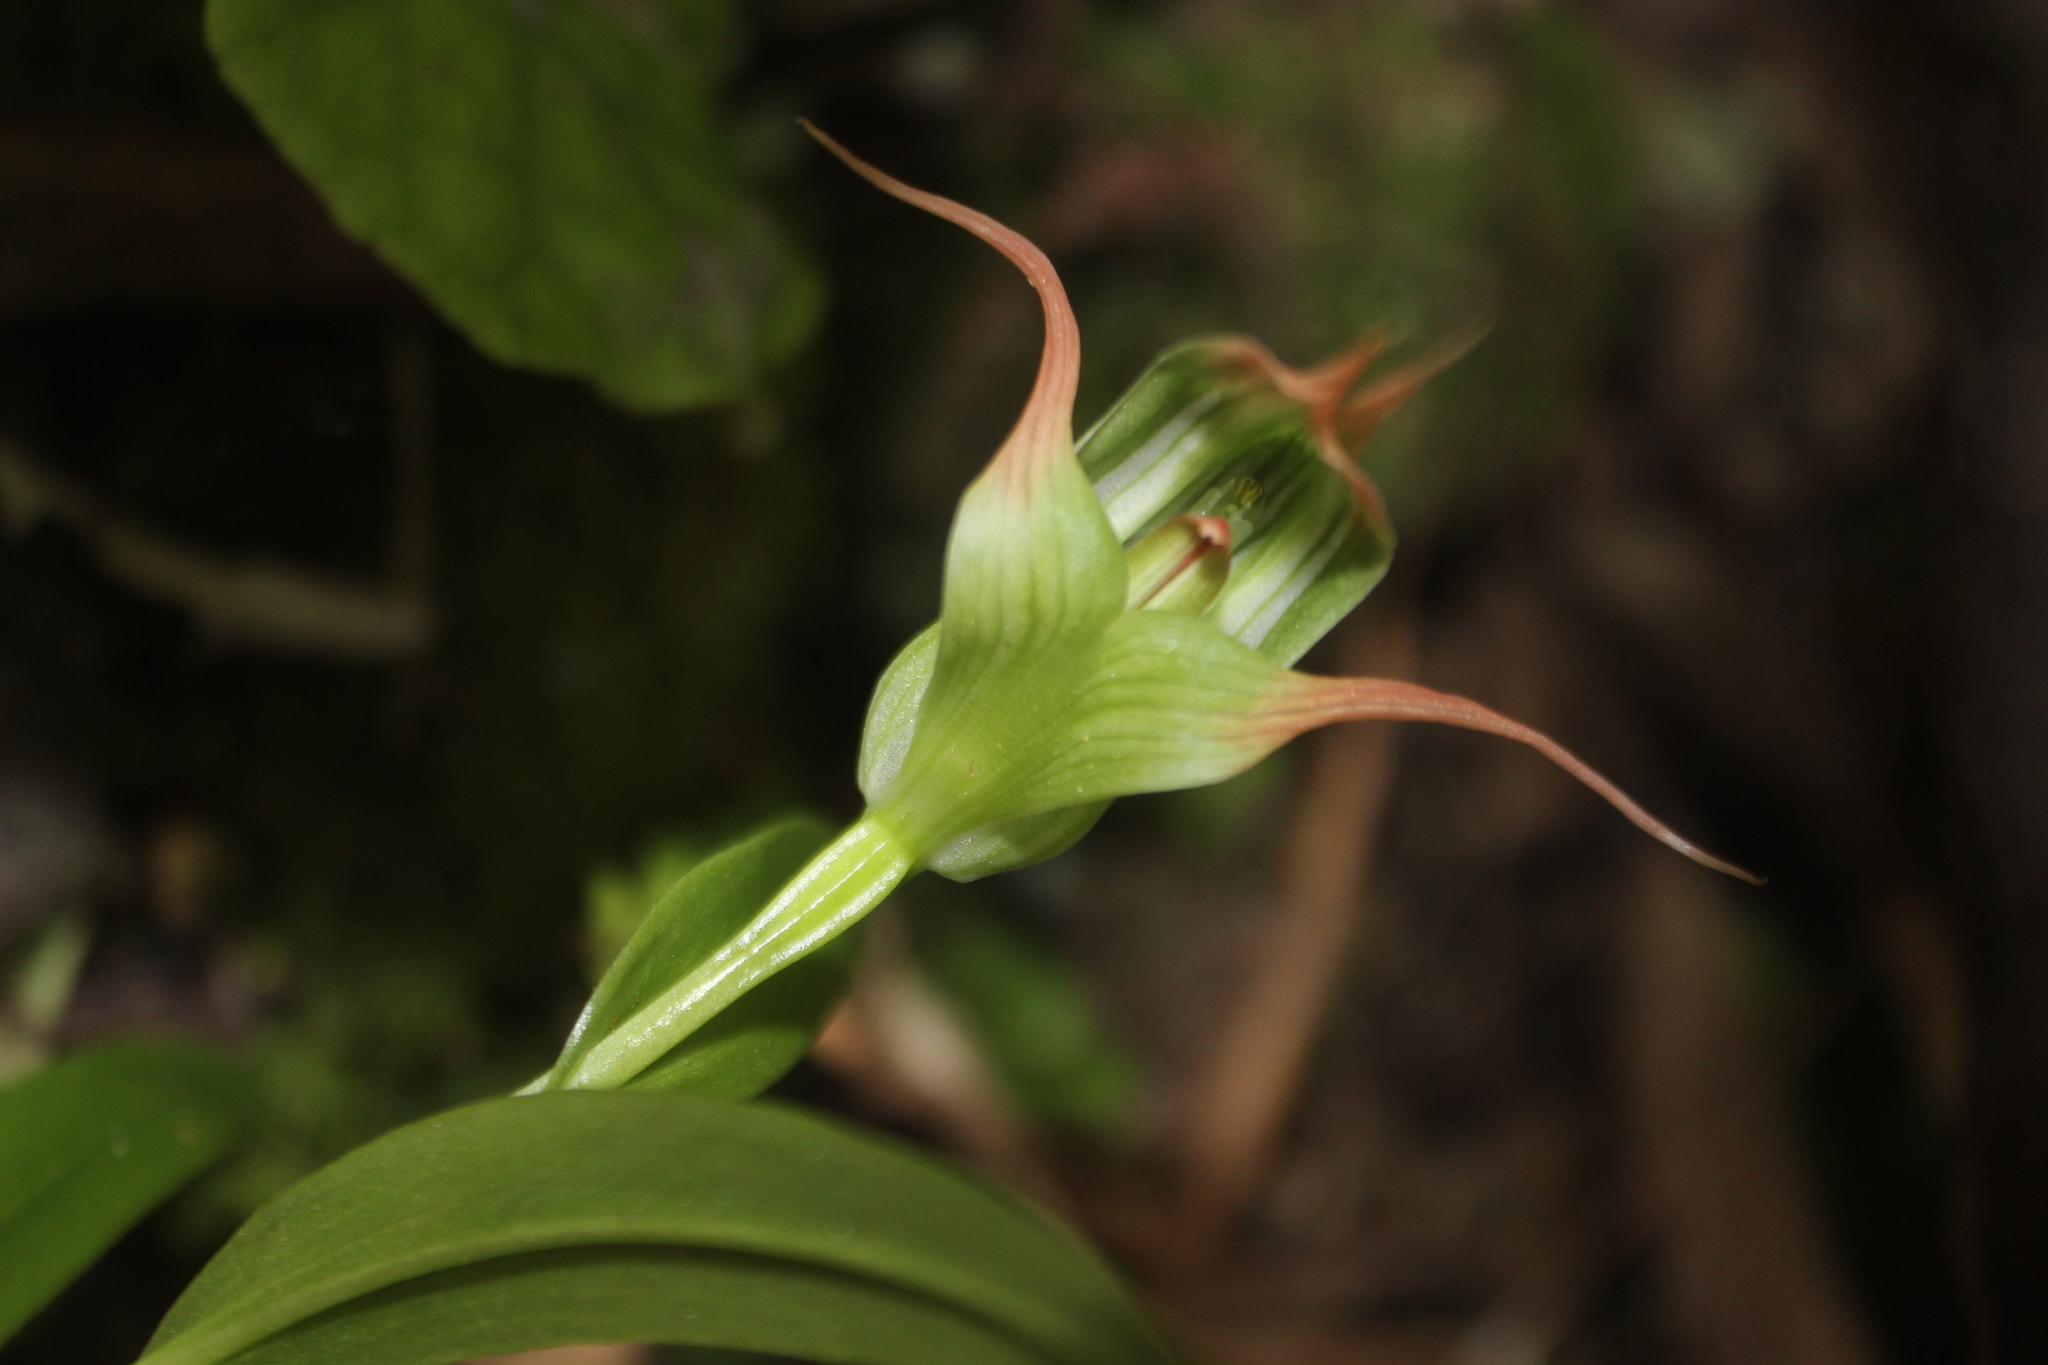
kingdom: Plantae
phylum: Tracheophyta
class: Liliopsida
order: Asparagales
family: Orchidaceae
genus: Pterostylis
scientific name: Pterostylis banksii
